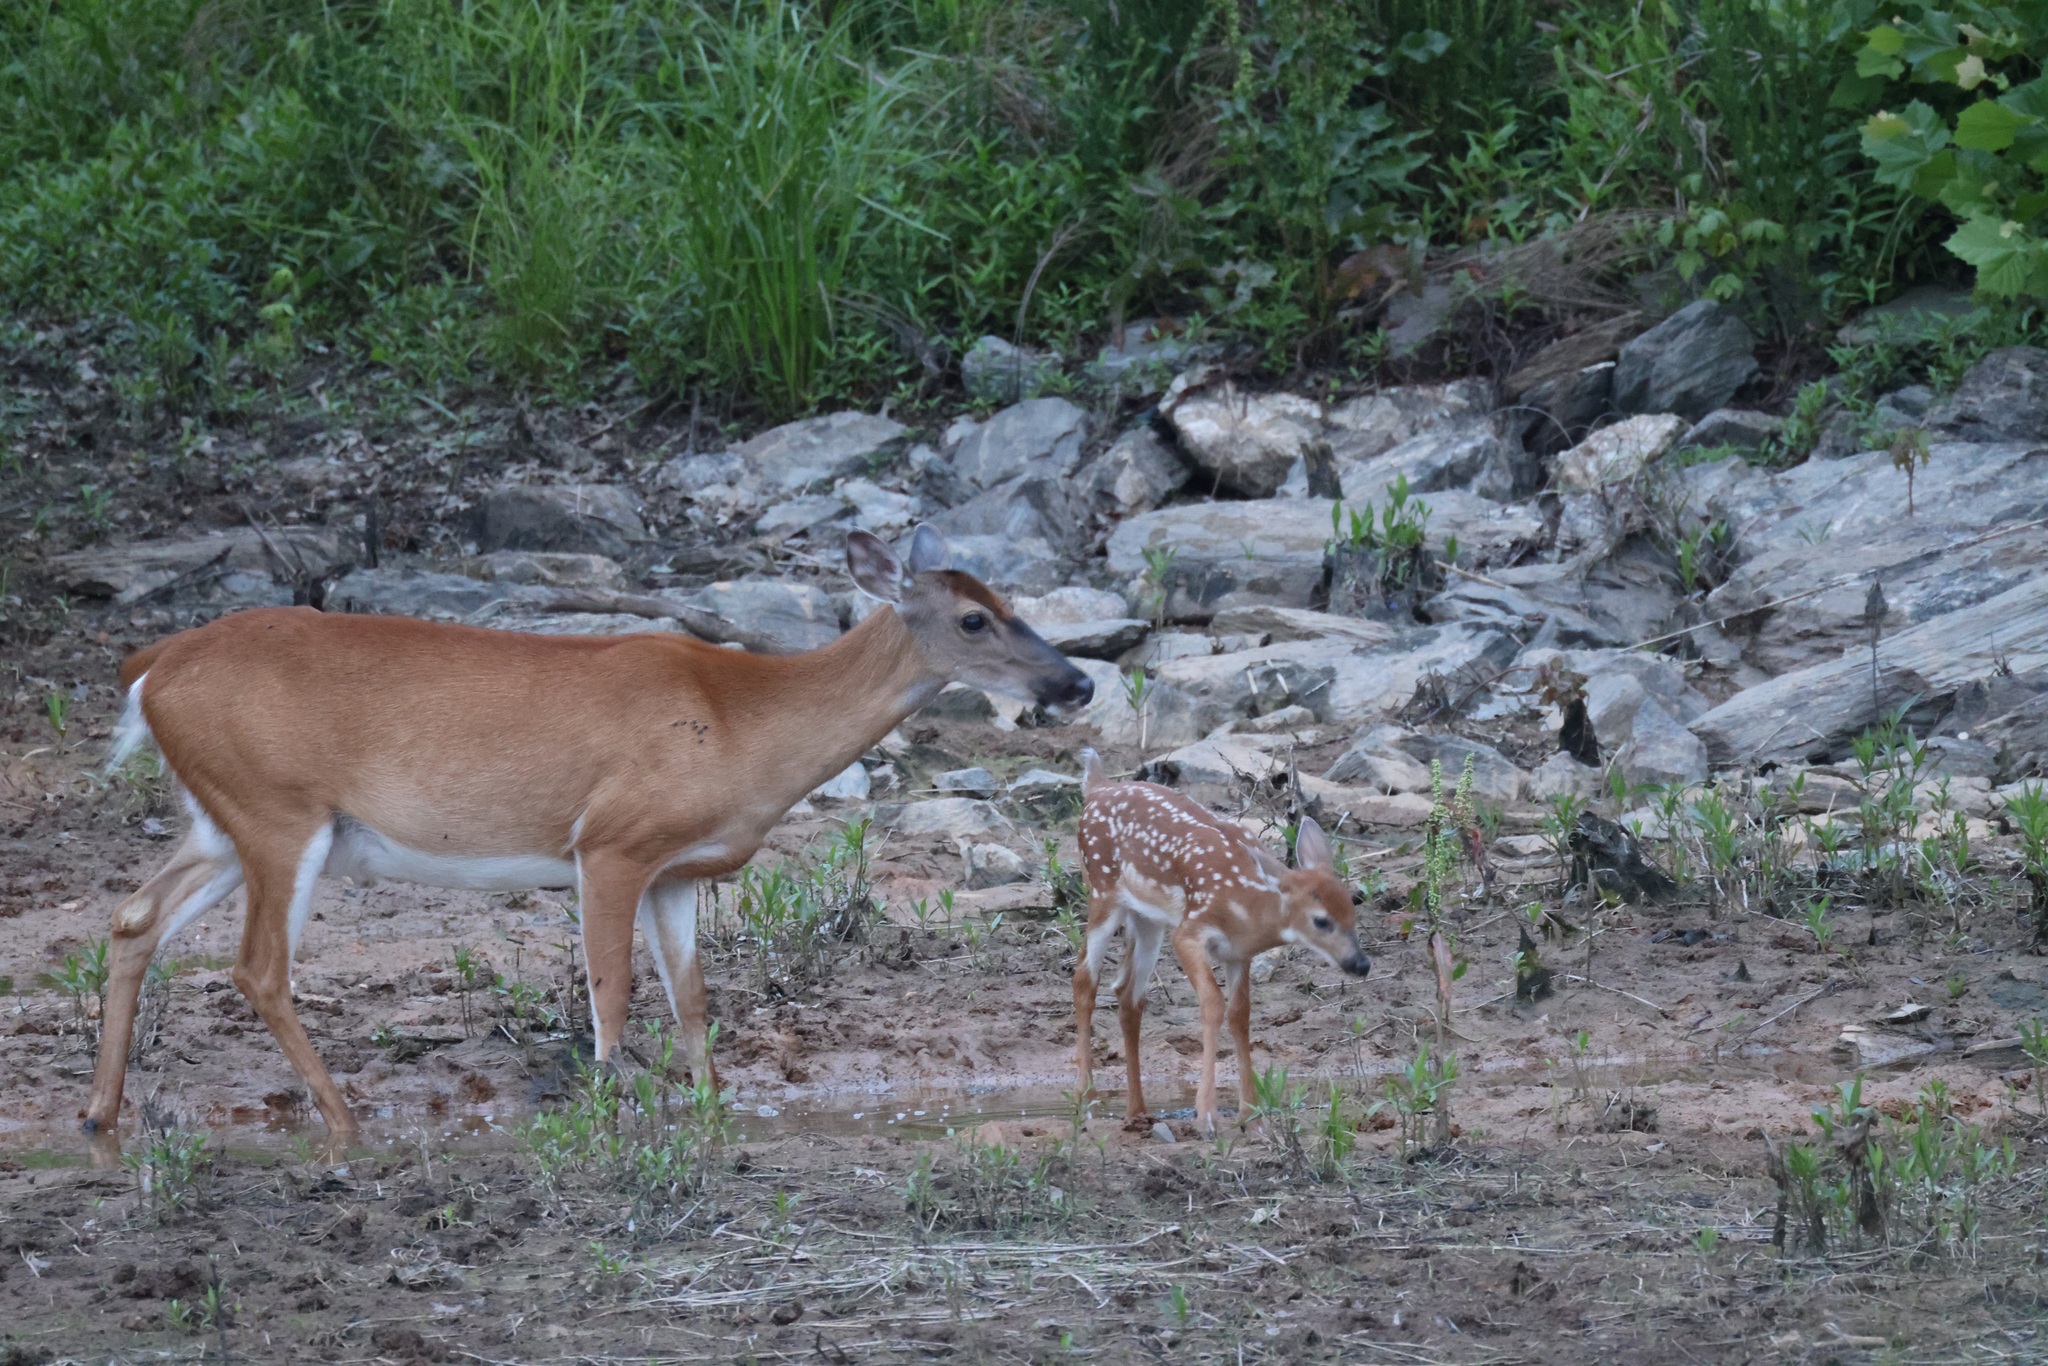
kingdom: Animalia
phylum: Chordata
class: Mammalia
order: Artiodactyla
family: Cervidae
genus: Odocoileus
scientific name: Odocoileus virginianus
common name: White-tailed deer
